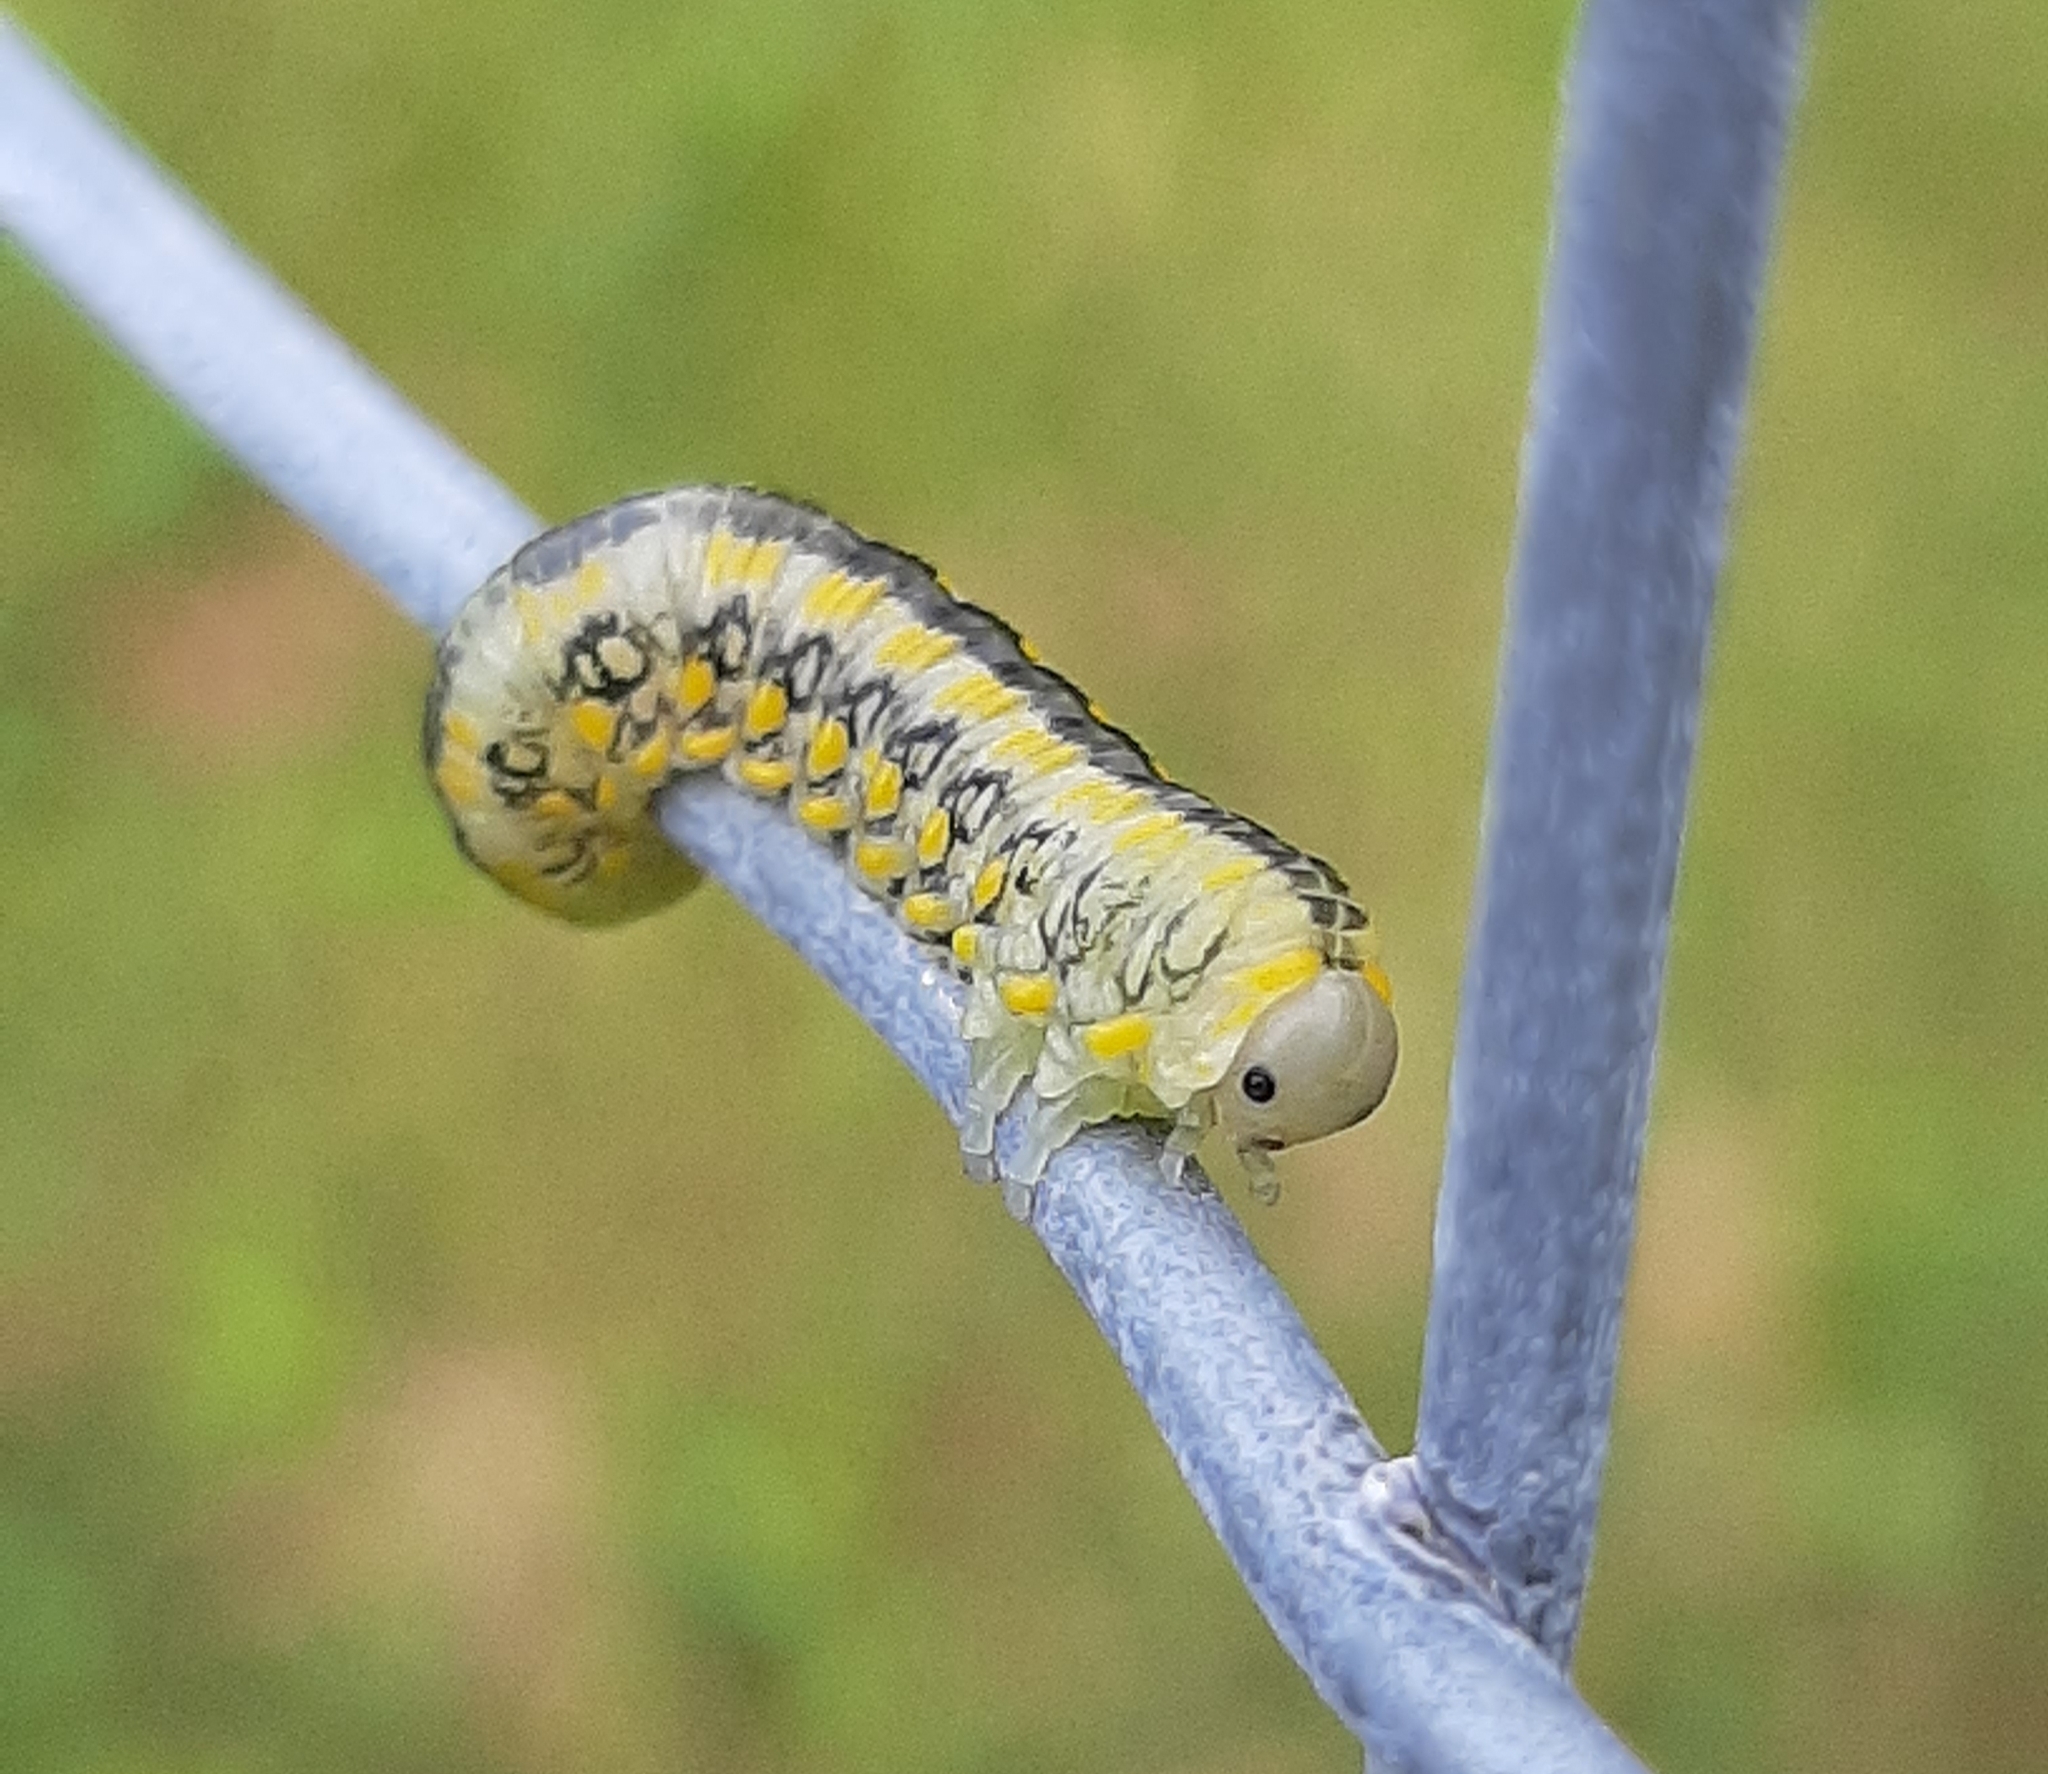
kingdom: Animalia
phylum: Arthropoda
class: Insecta
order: Hymenoptera
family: Diprionidae
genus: Diprion
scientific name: Diprion similis
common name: Pine sawfly
